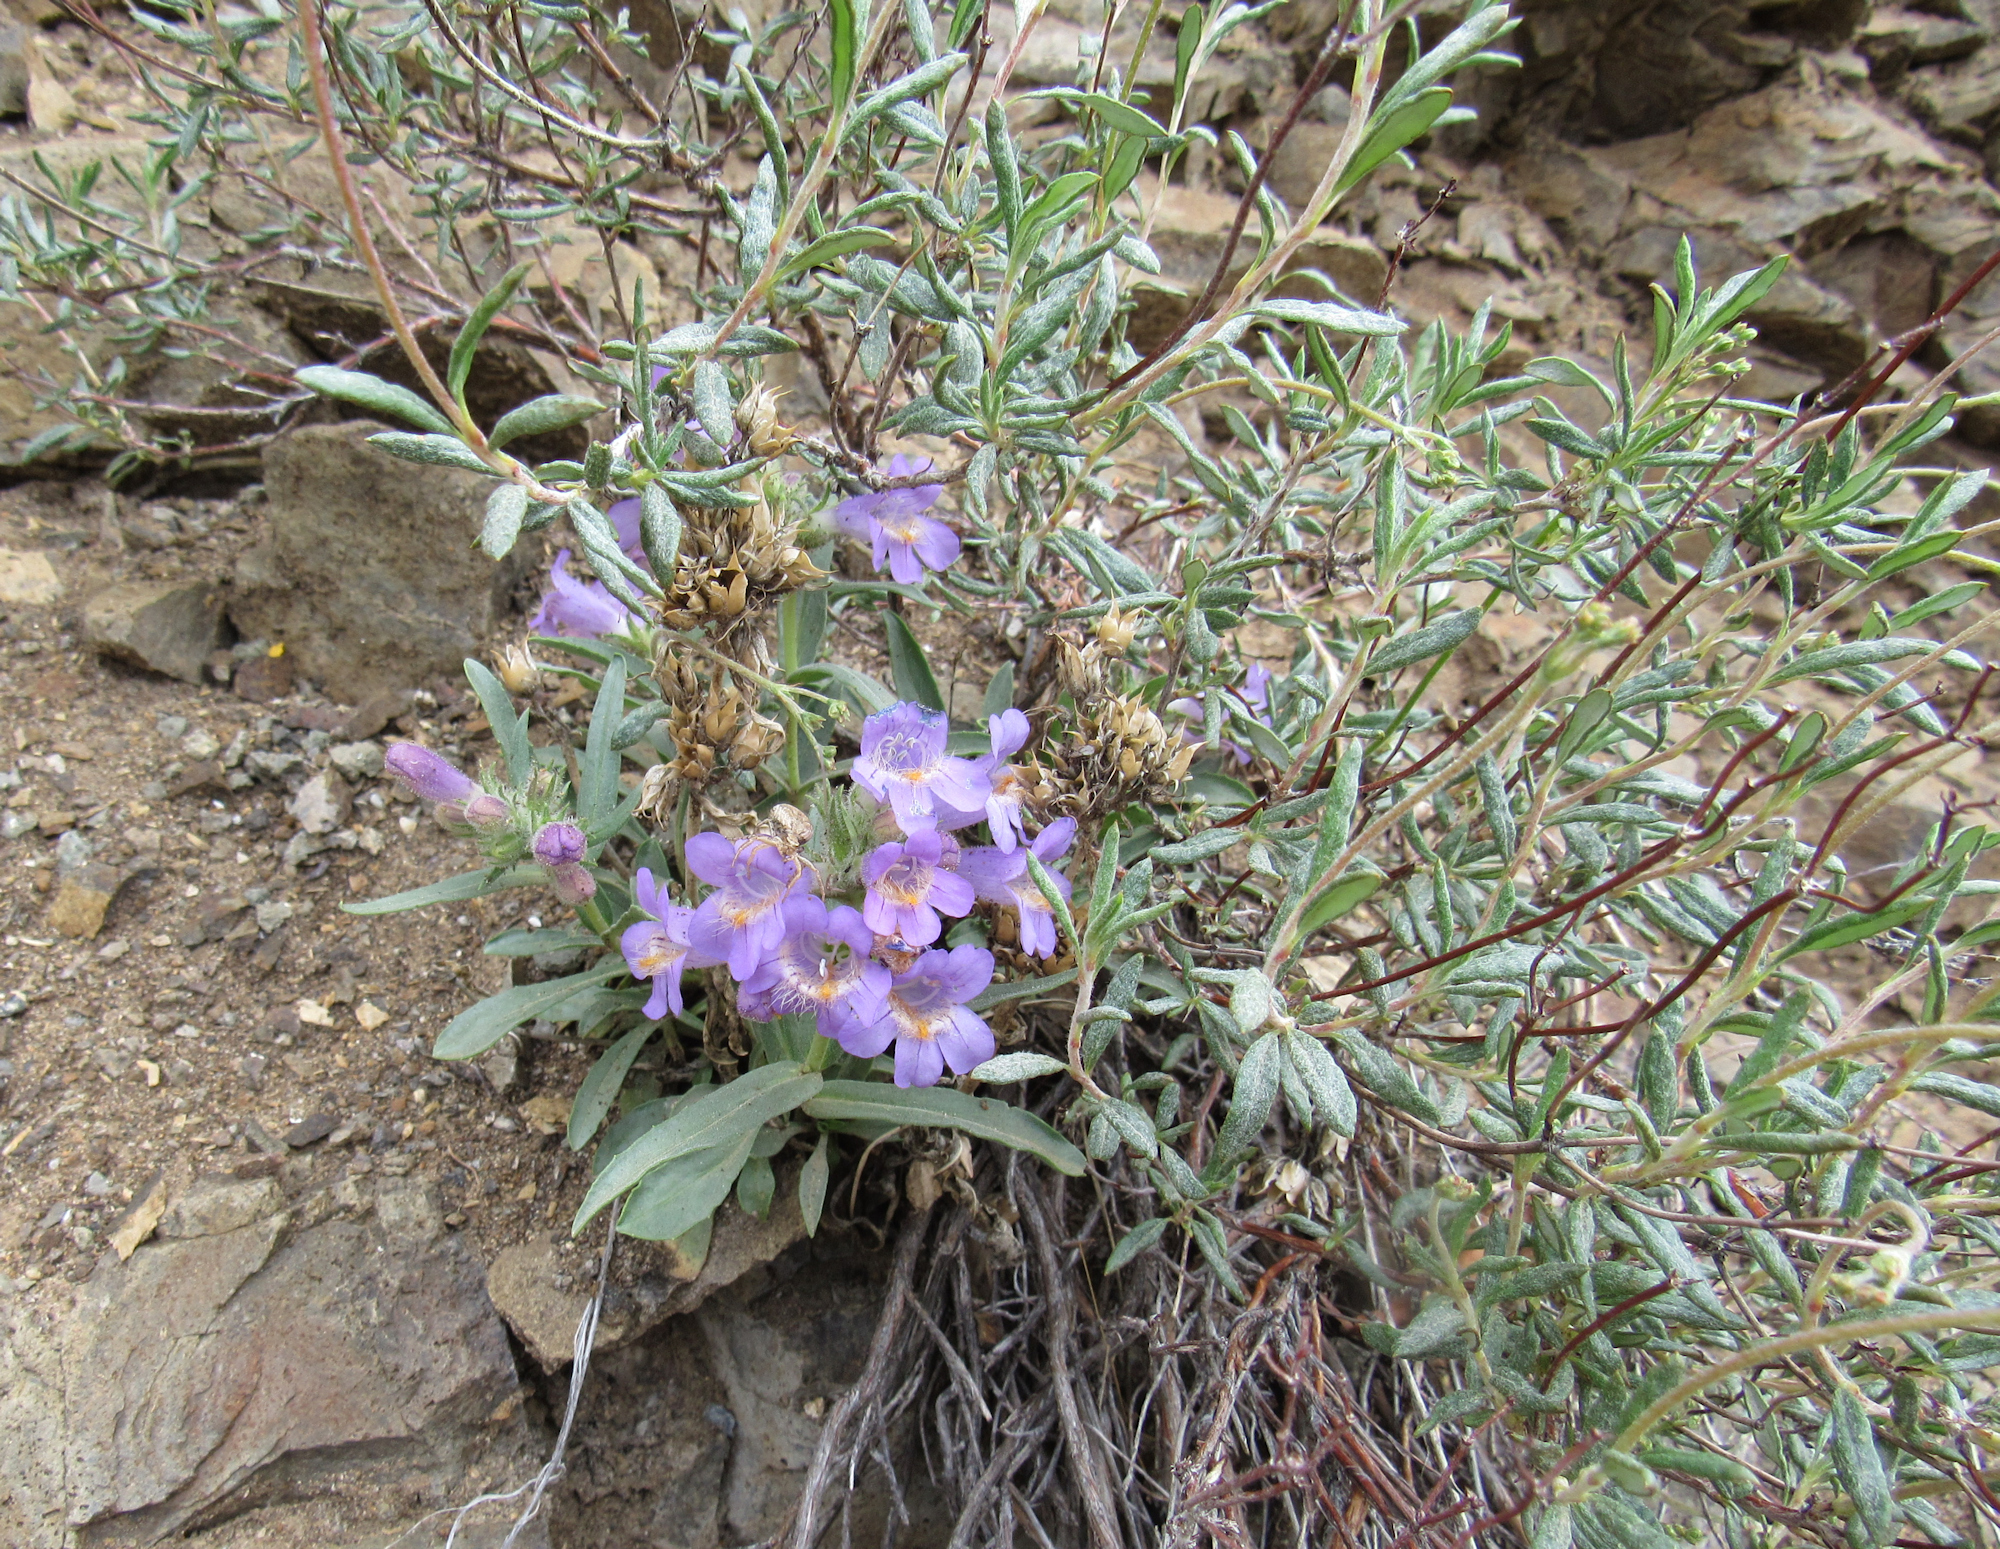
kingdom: Plantae
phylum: Tracheophyta
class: Magnoliopsida
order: Lamiales
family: Plantaginaceae
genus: Penstemon
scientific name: Penstemon eriantherus
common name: Crested beardtongue
